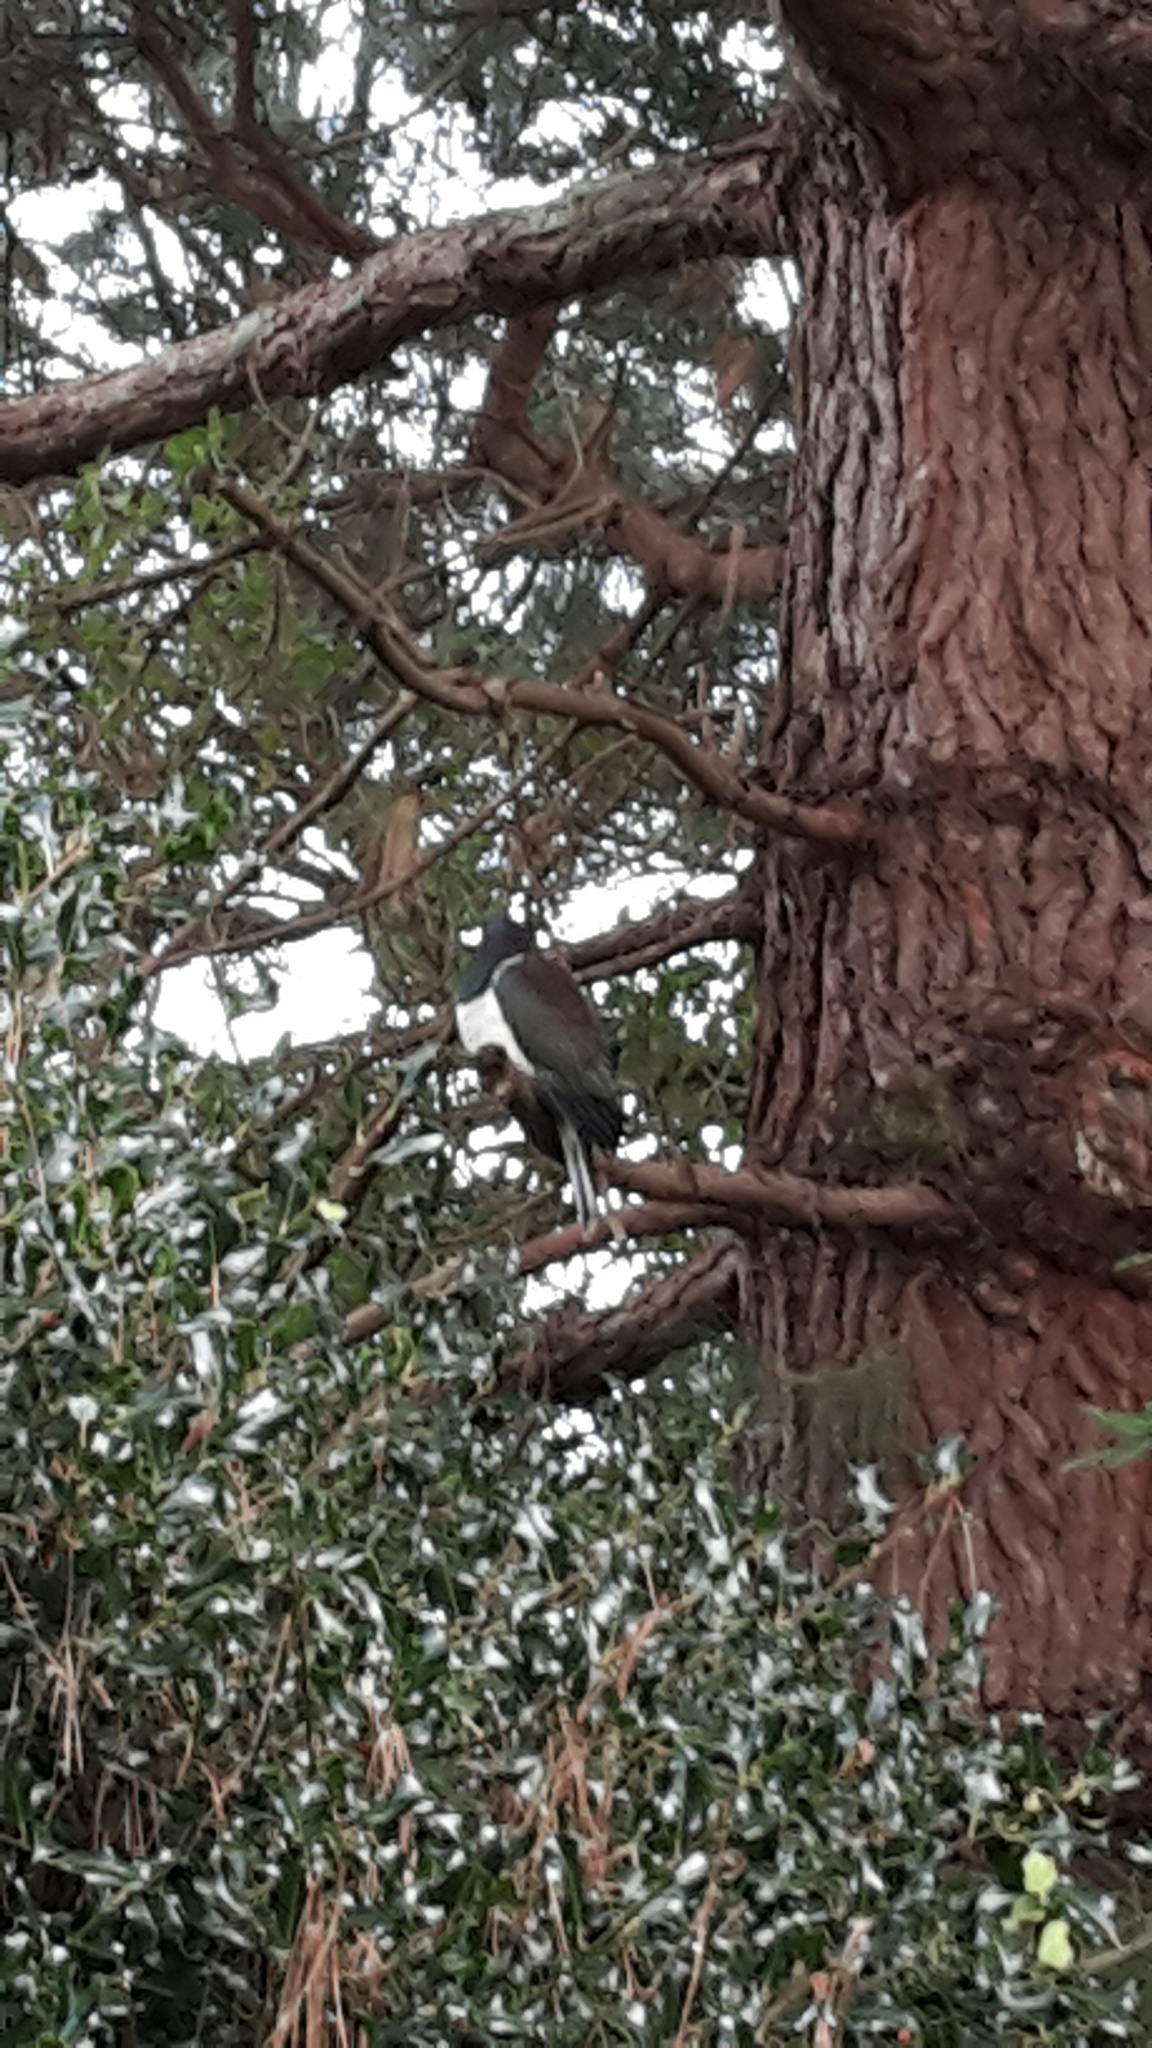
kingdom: Animalia
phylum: Chordata
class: Aves
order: Columbiformes
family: Columbidae
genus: Hemiphaga
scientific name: Hemiphaga novaeseelandiae
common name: New zealand pigeon
